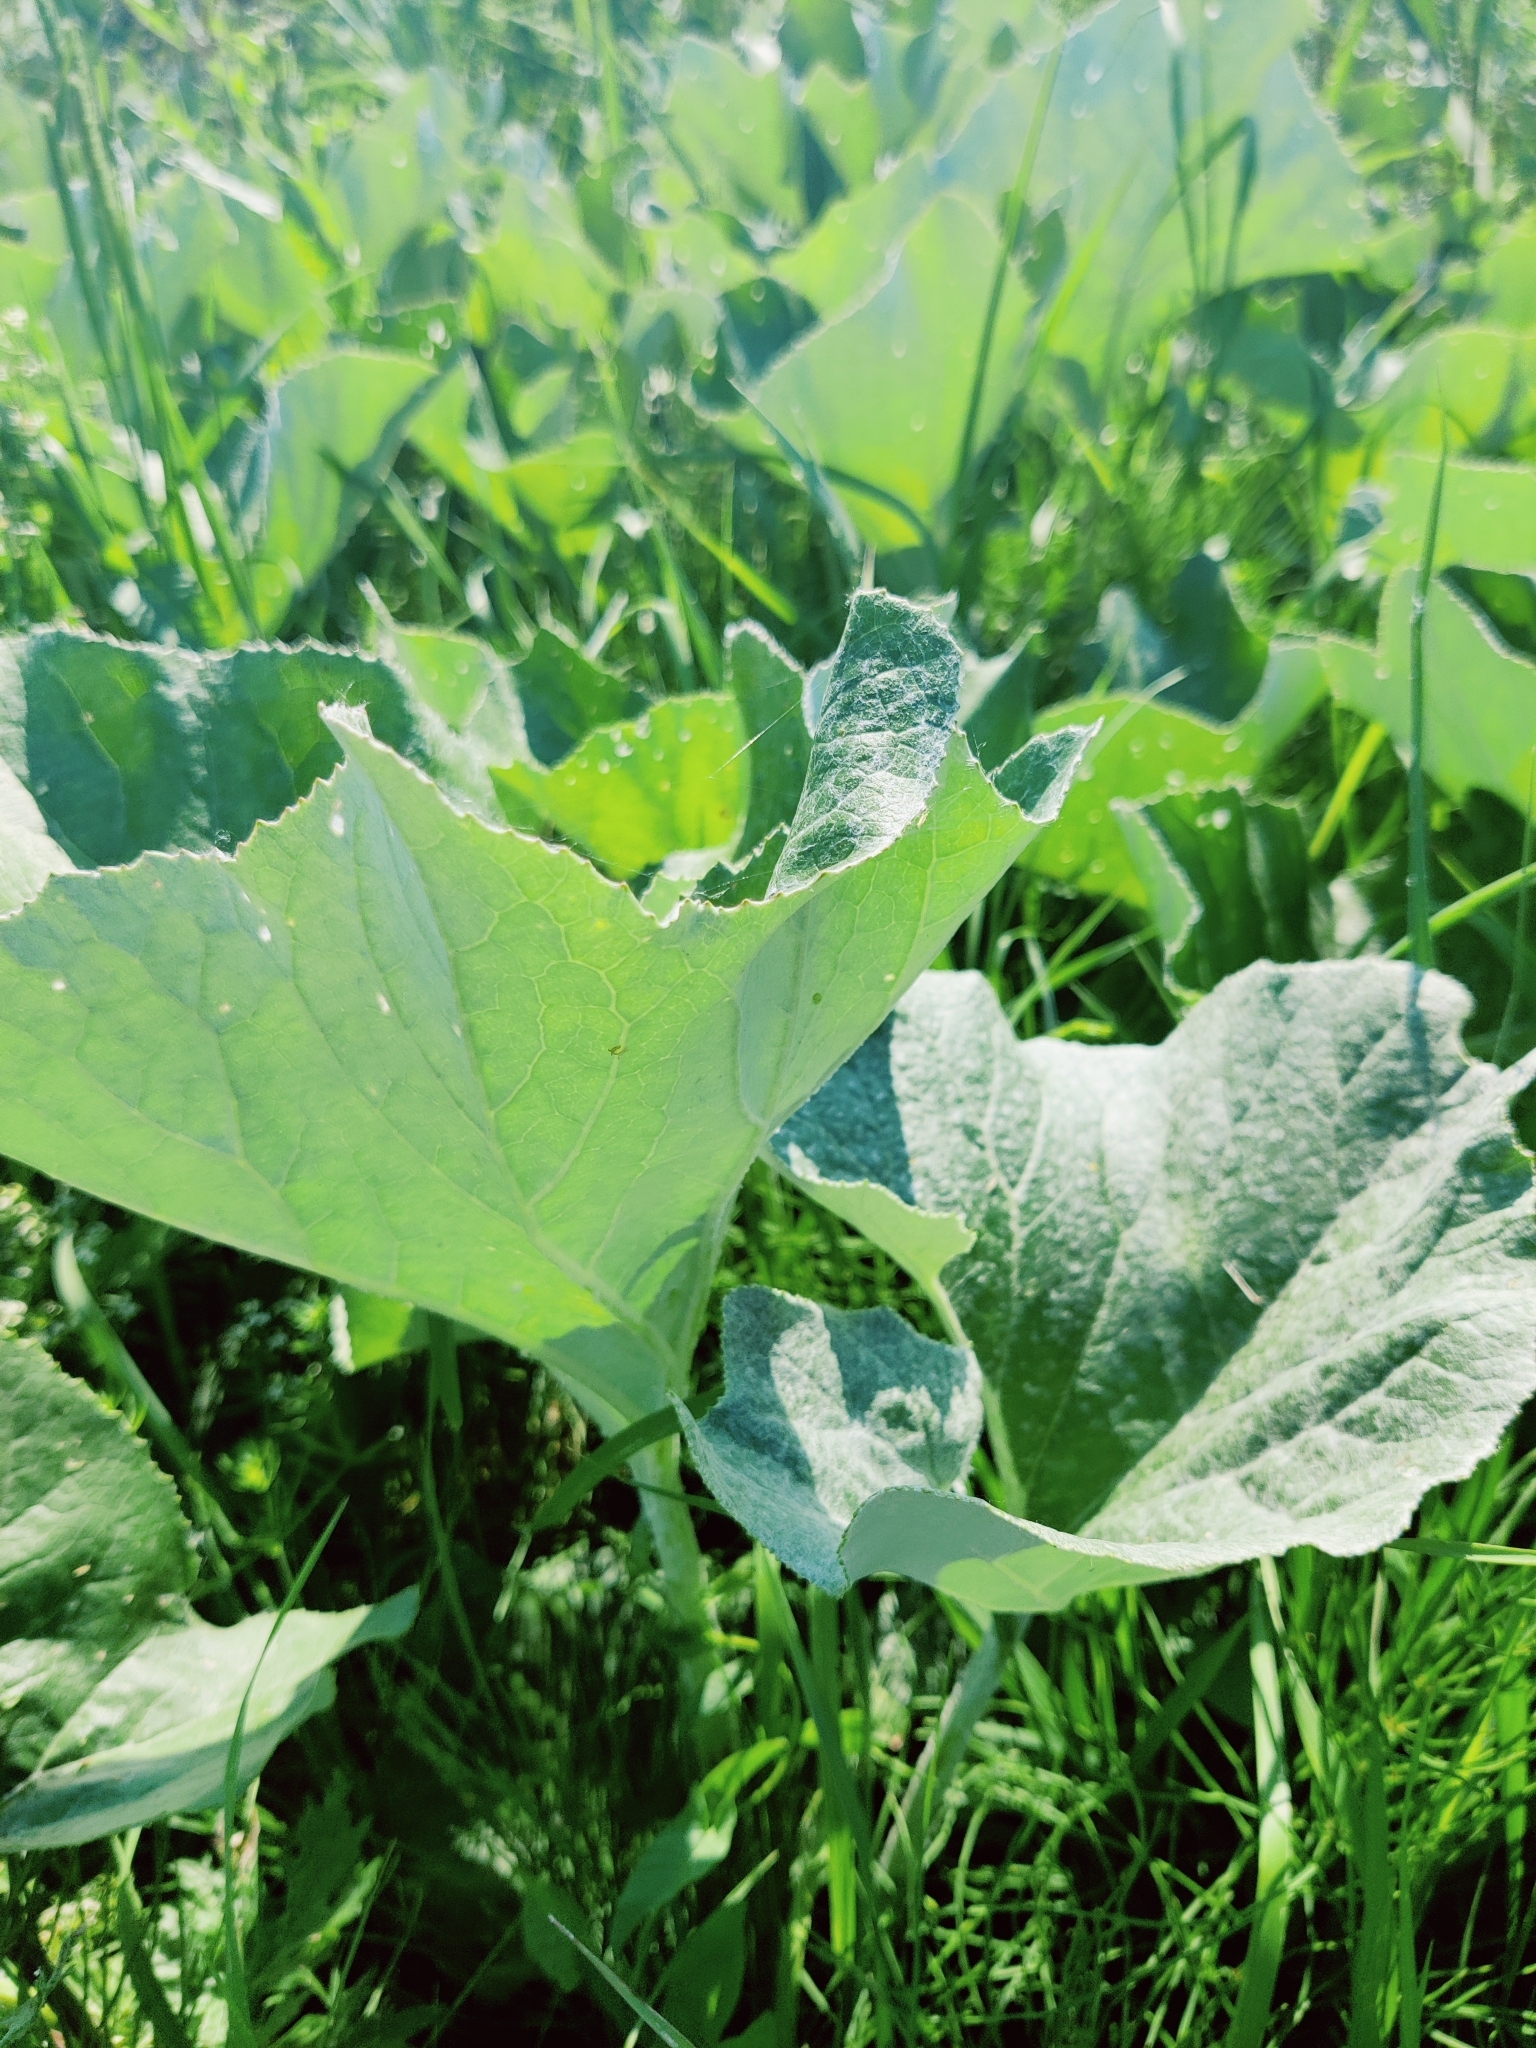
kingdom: Plantae
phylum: Tracheophyta
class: Magnoliopsida
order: Asterales
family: Asteraceae
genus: Petasites
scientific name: Petasites spurius
